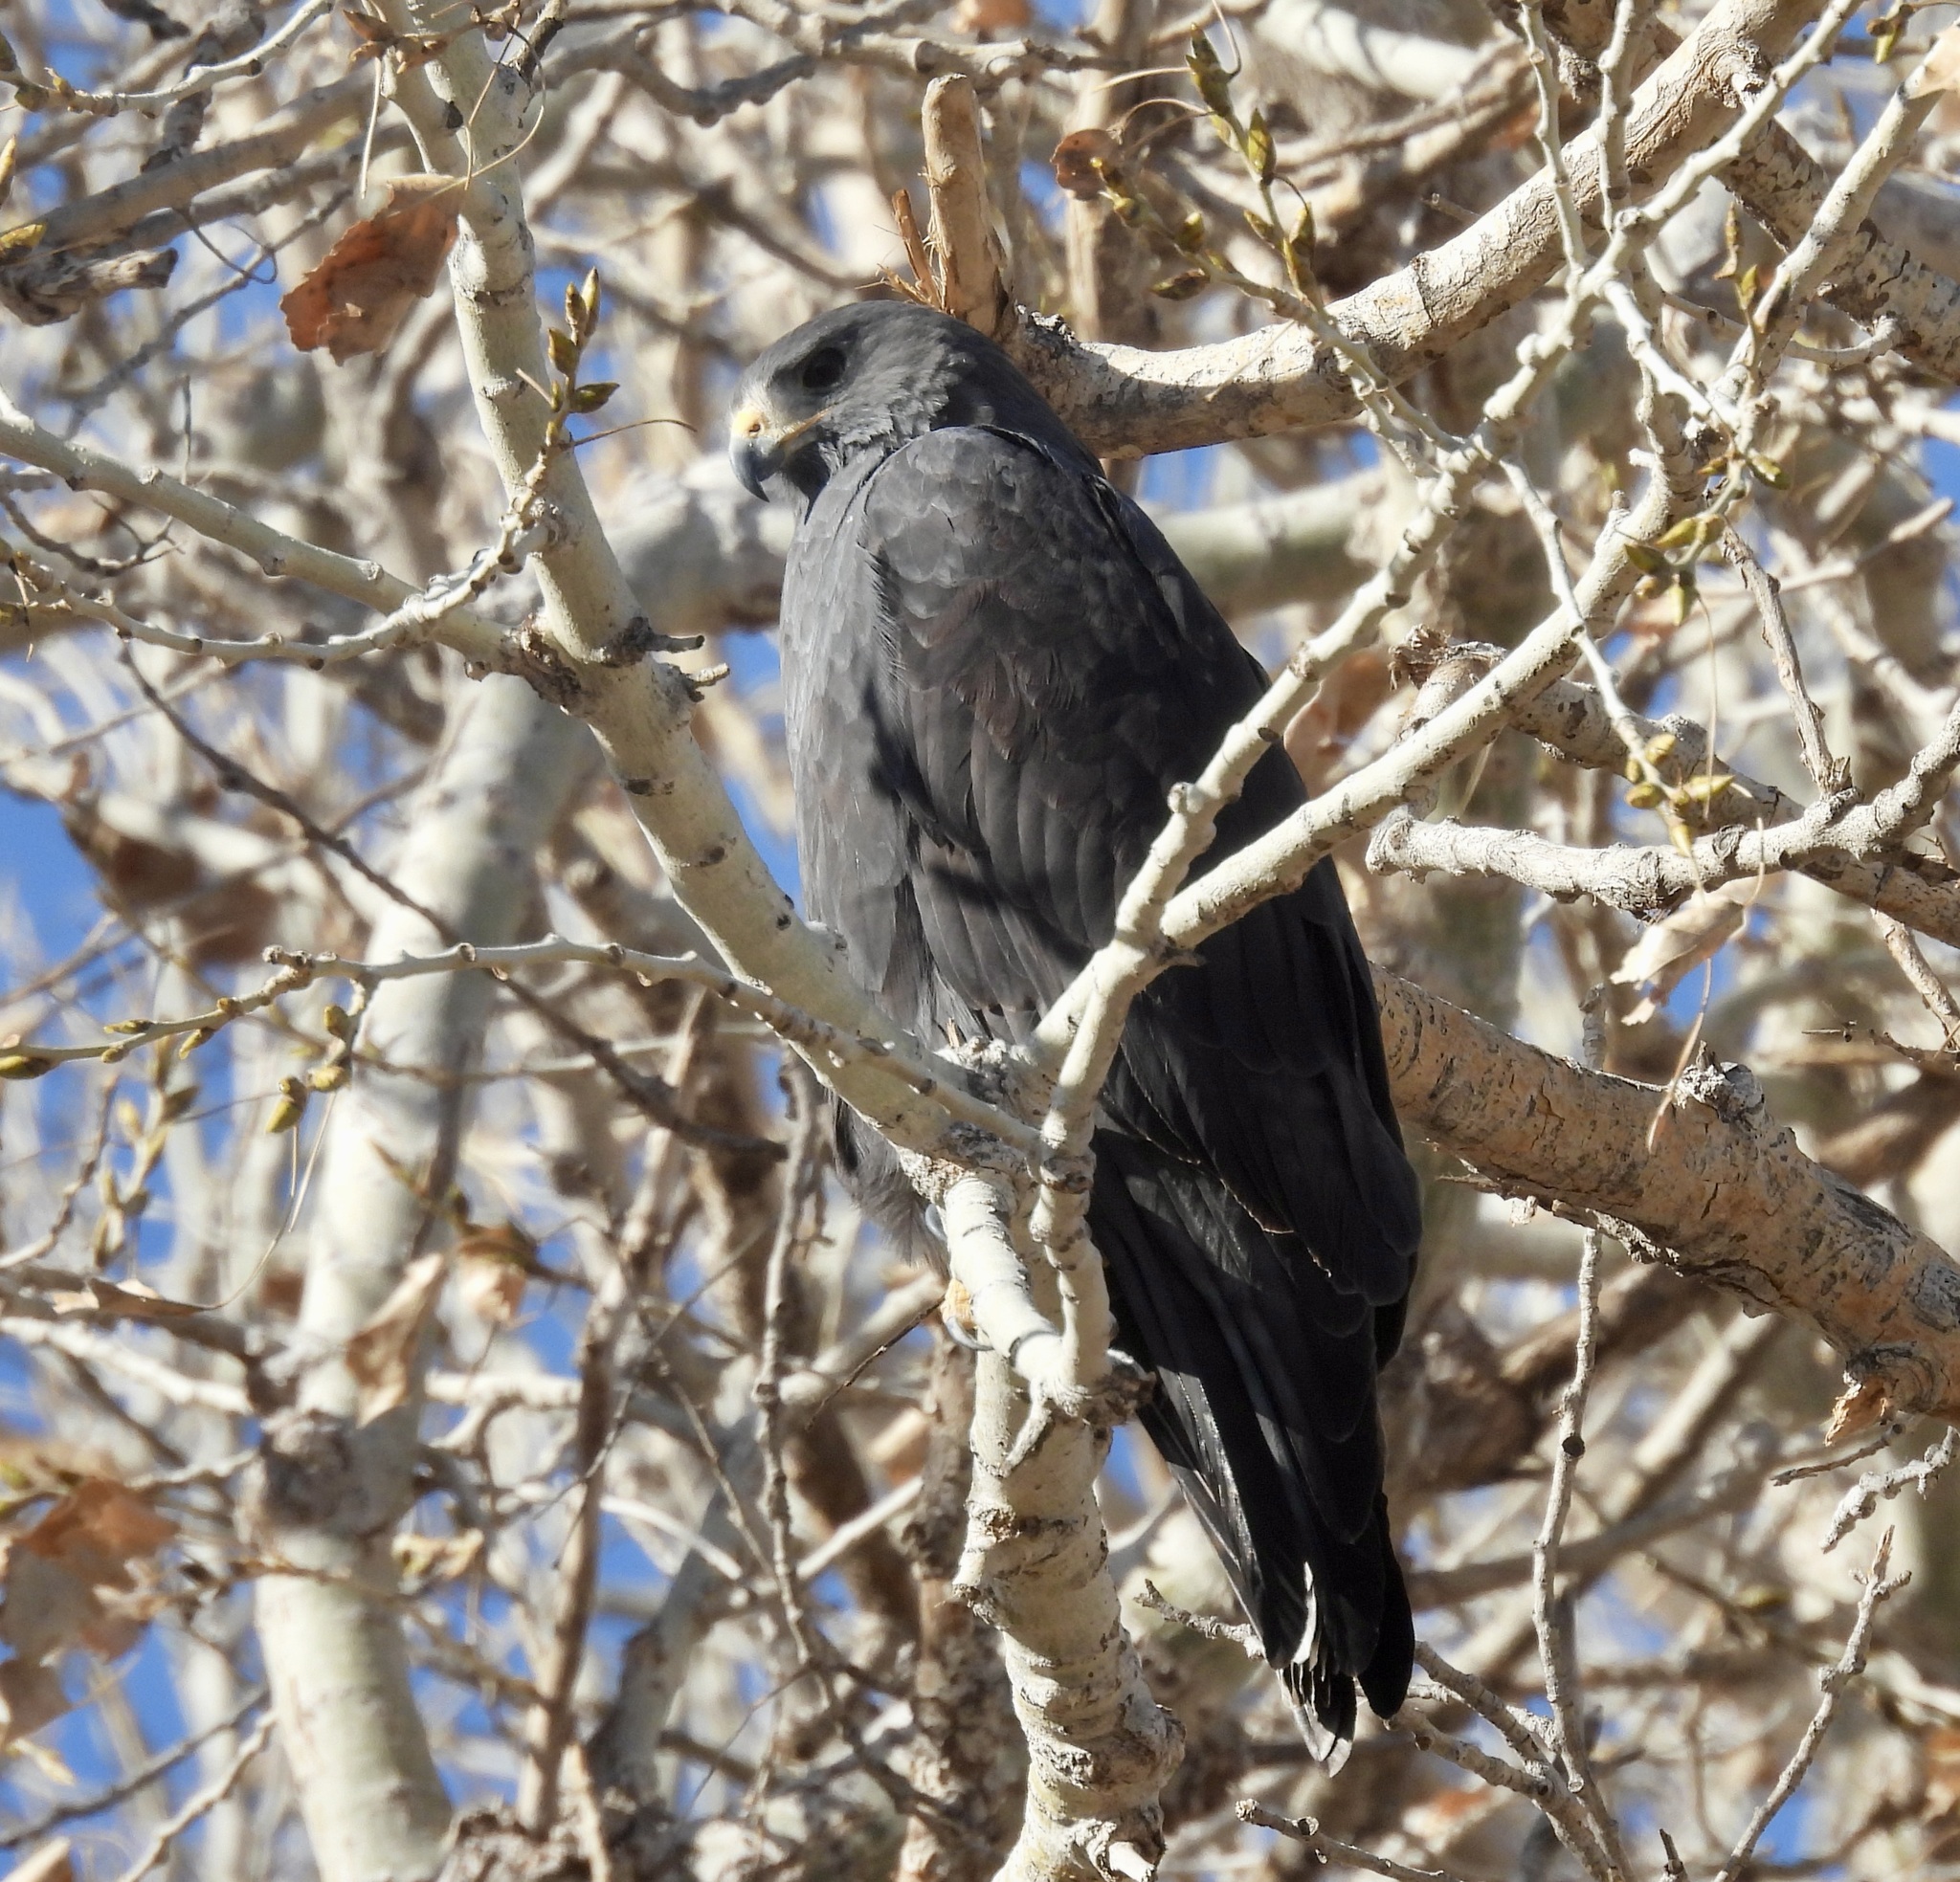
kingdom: Animalia
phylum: Chordata
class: Aves
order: Accipitriformes
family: Accipitridae
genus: Buteo
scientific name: Buteo albonotatus
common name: Zone-tailed hawk
